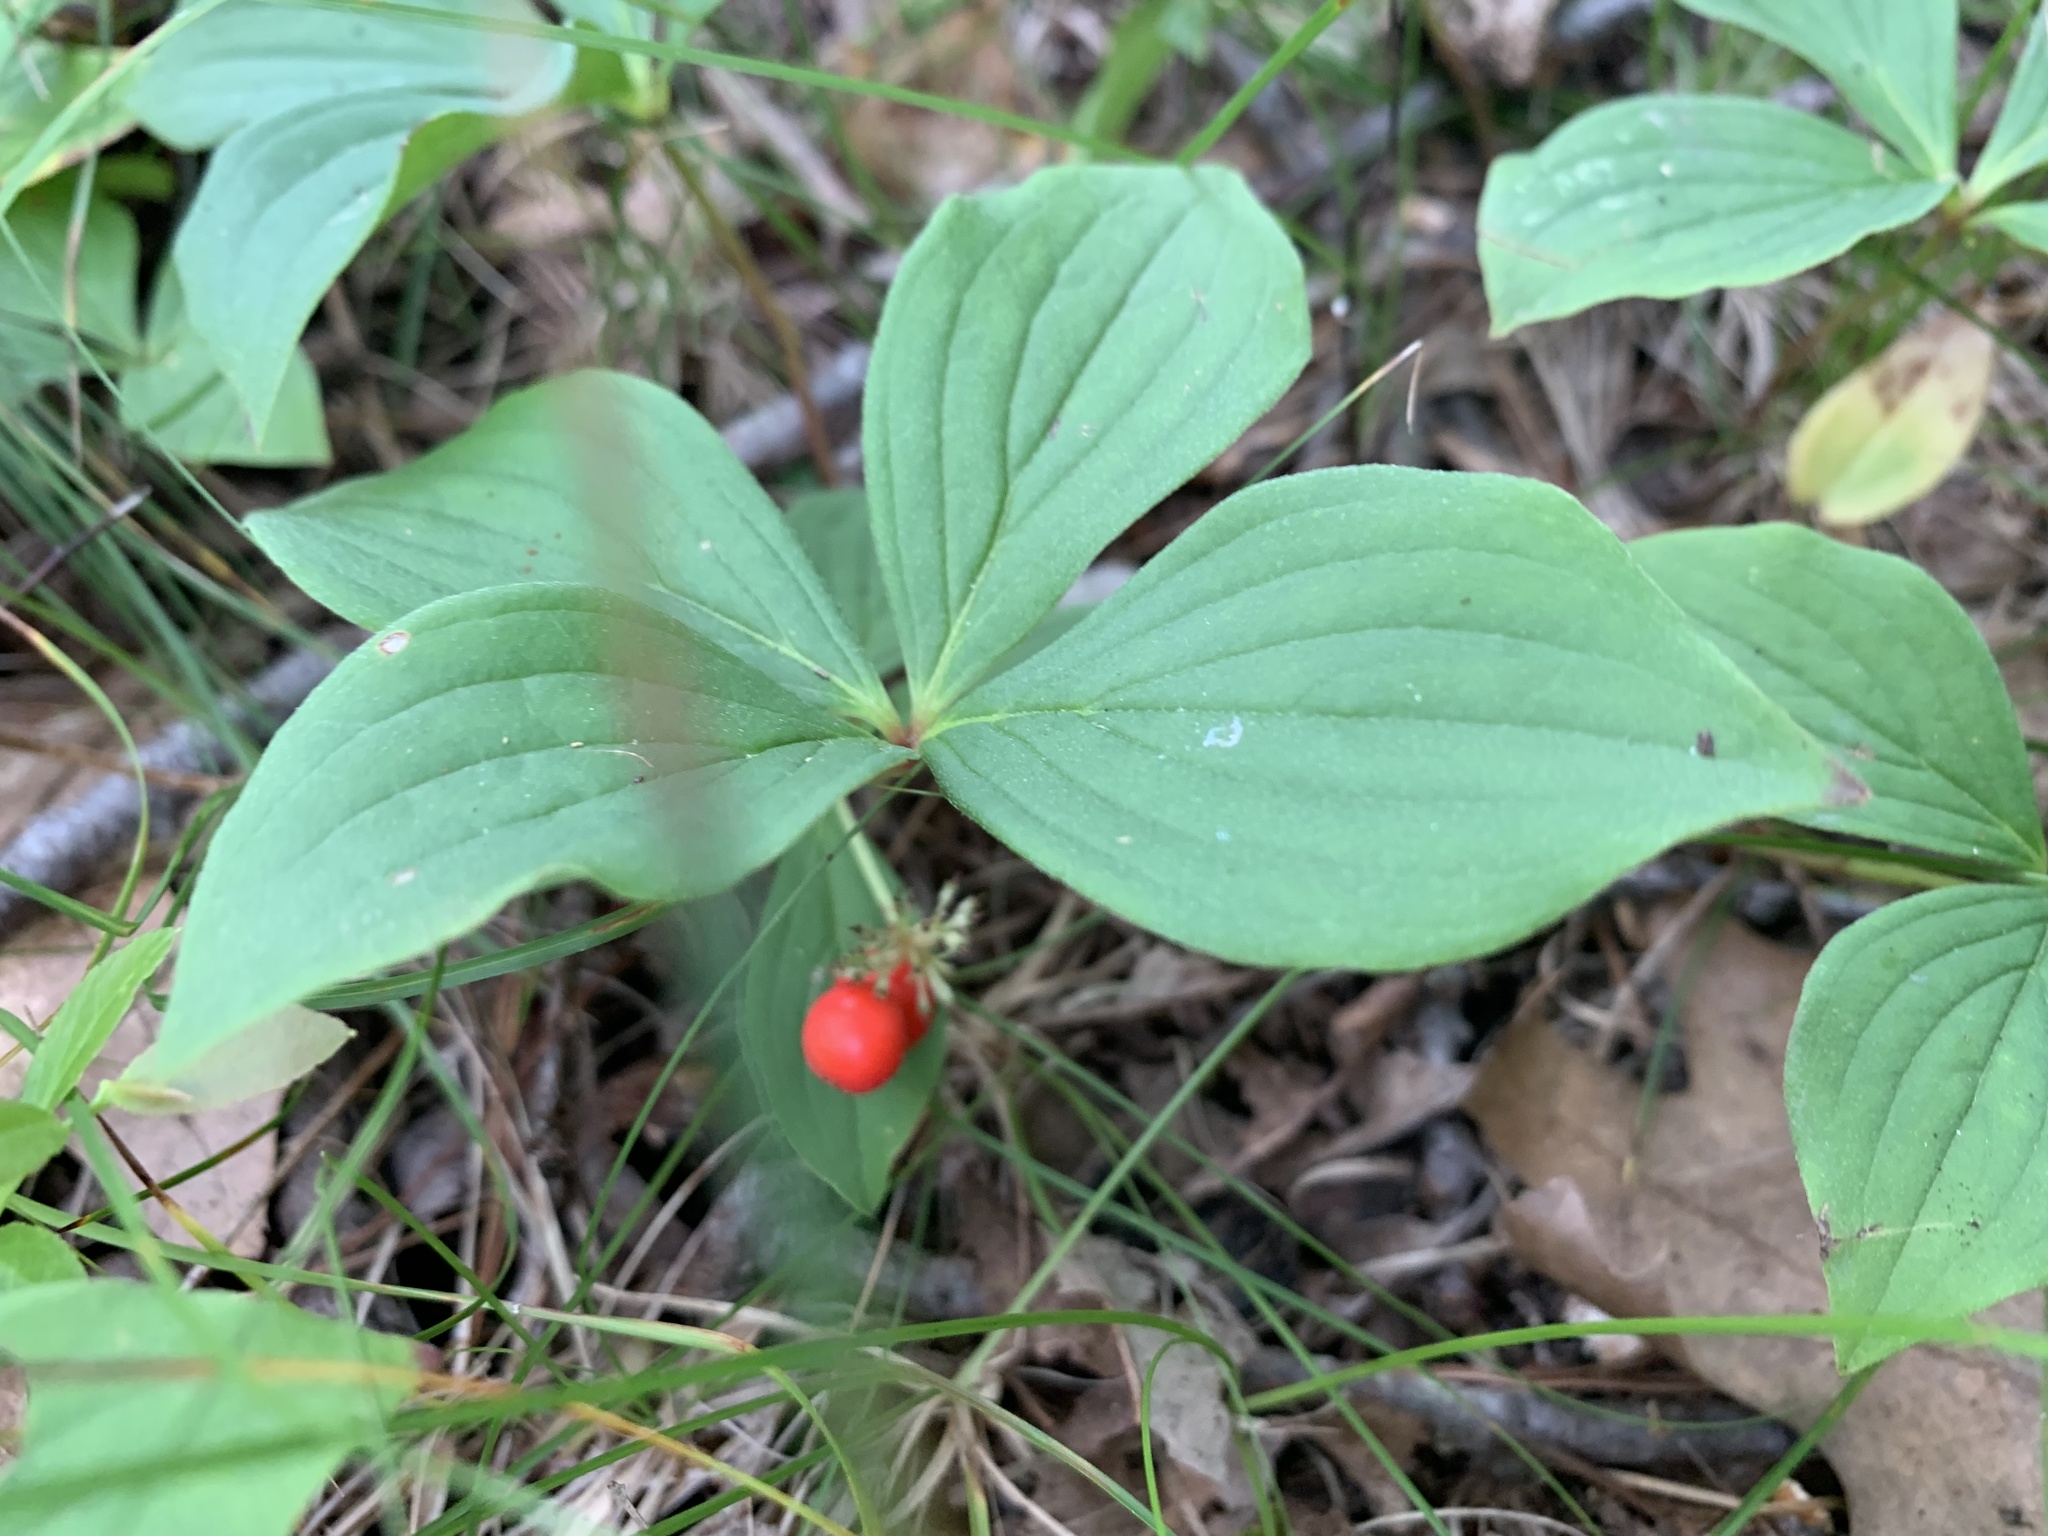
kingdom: Plantae
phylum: Tracheophyta
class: Magnoliopsida
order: Cornales
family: Cornaceae
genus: Cornus
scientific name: Cornus canadensis
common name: Creeping dogwood
